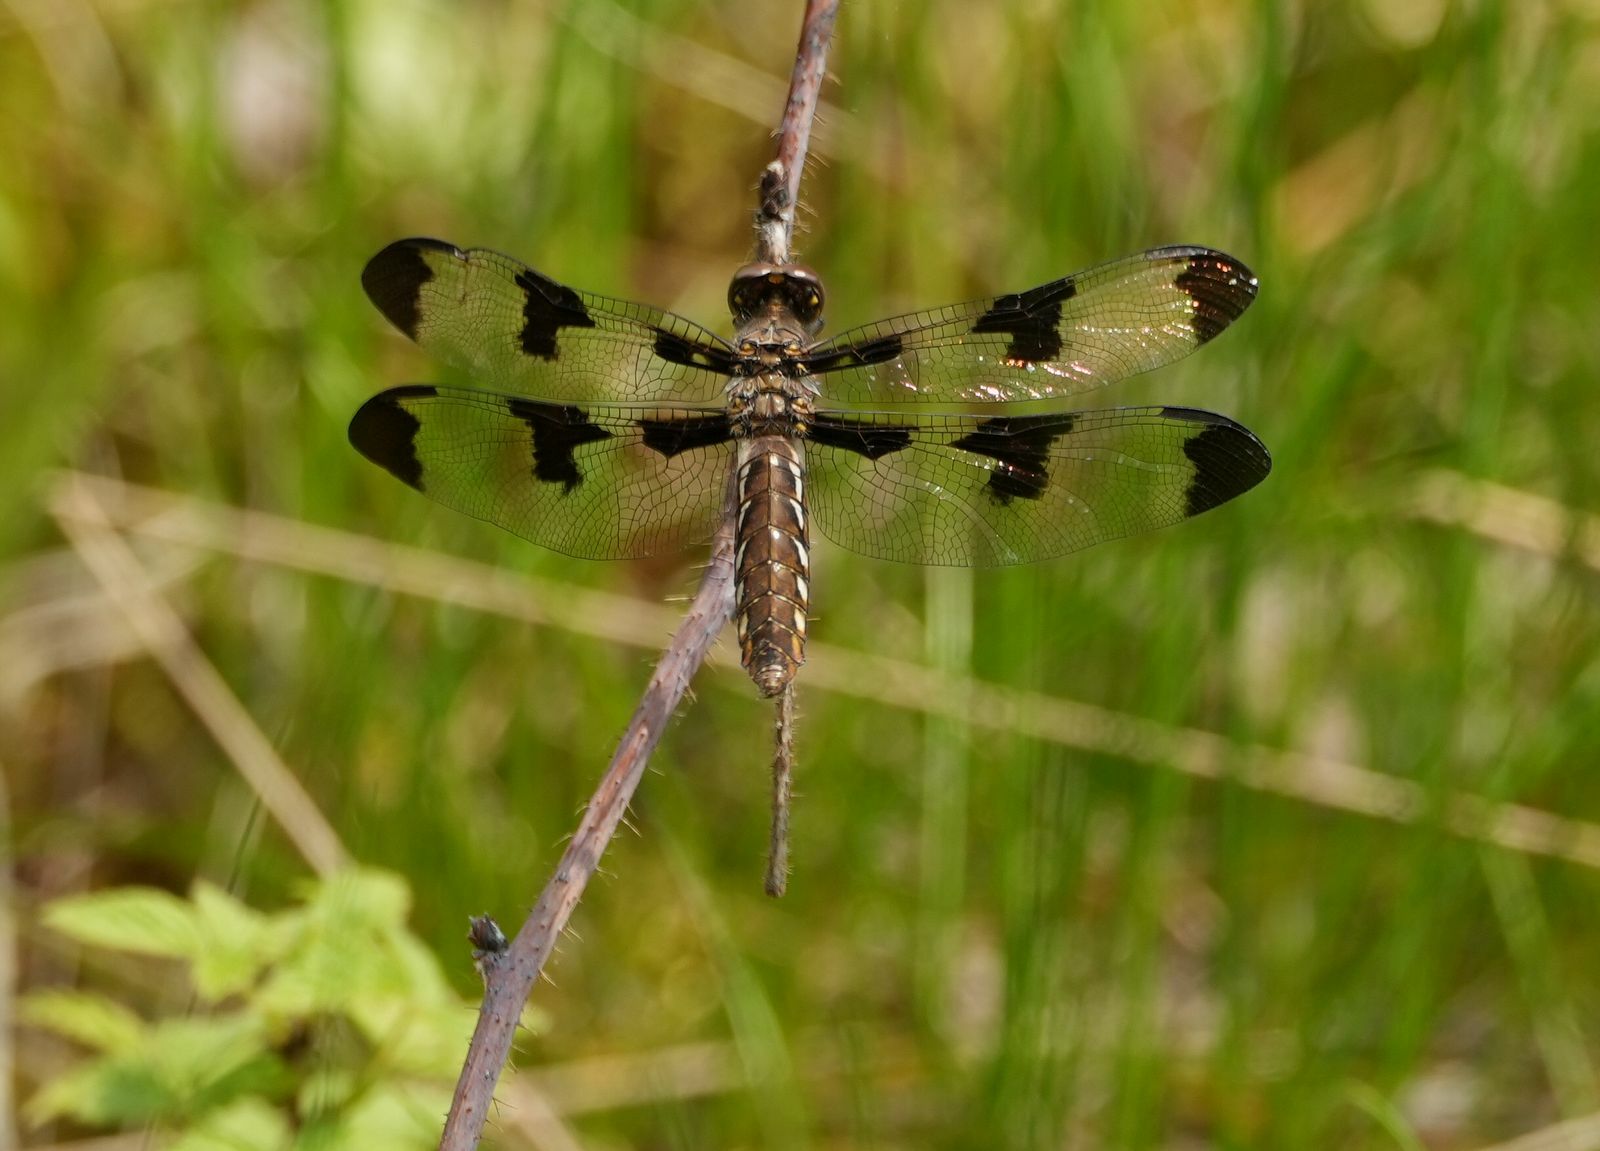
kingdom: Animalia
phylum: Arthropoda
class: Insecta
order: Odonata
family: Libellulidae
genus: Plathemis
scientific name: Plathemis lydia
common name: Common whitetail
